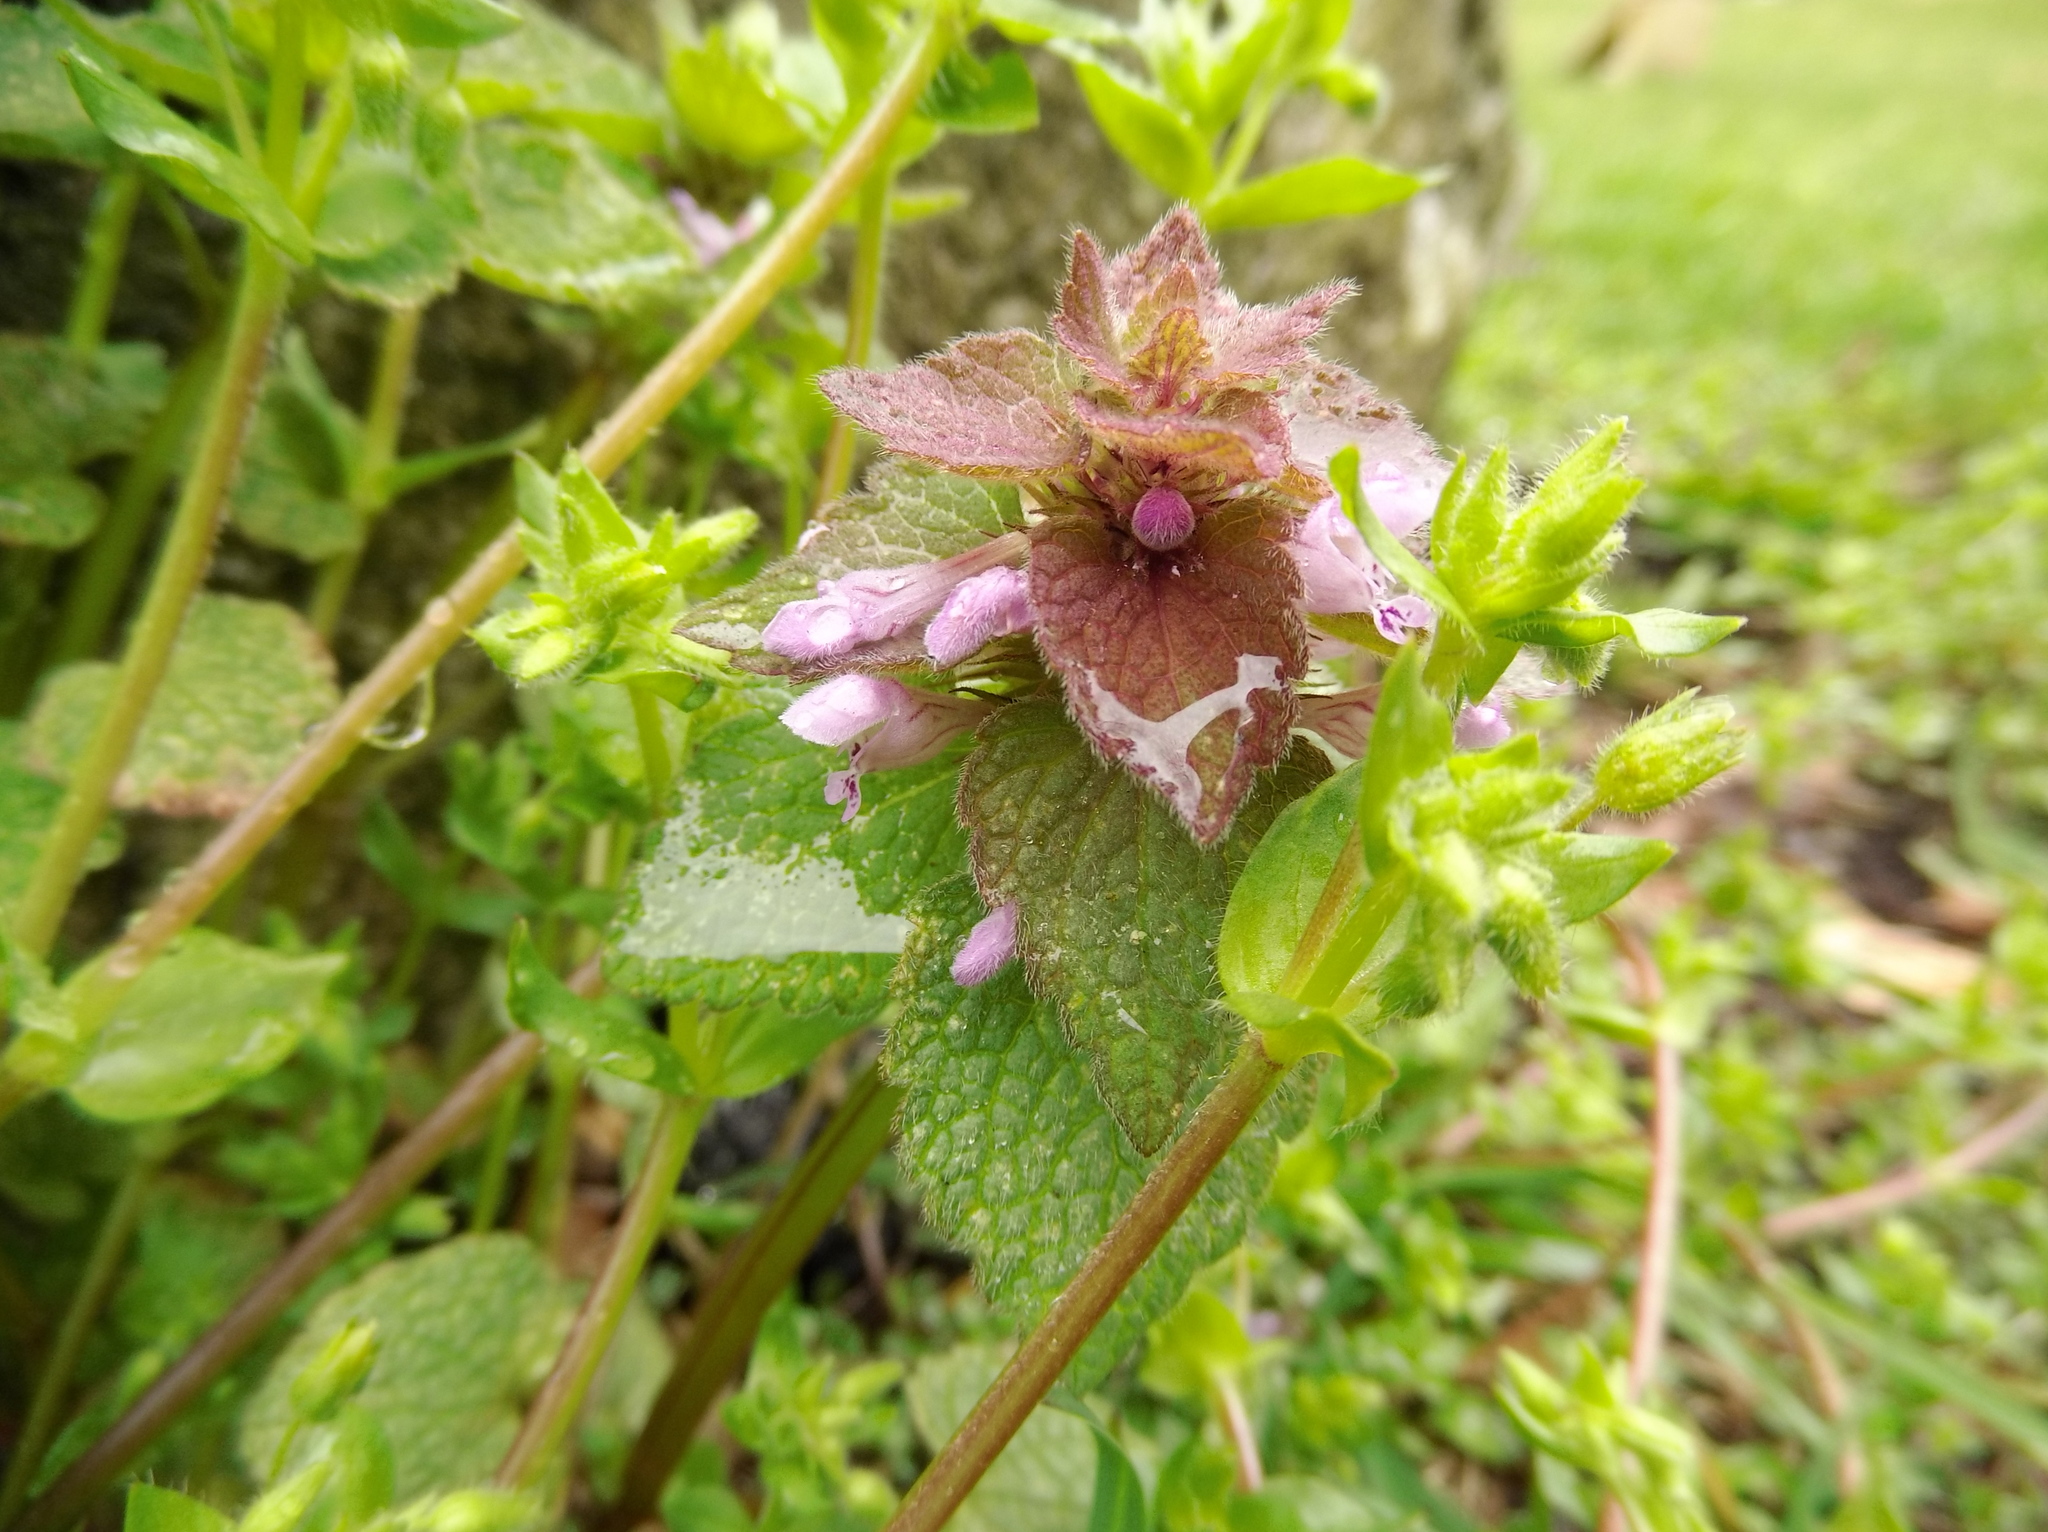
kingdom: Plantae
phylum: Tracheophyta
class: Magnoliopsida
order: Lamiales
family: Lamiaceae
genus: Lamium
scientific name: Lamium purpureum
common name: Red dead-nettle
